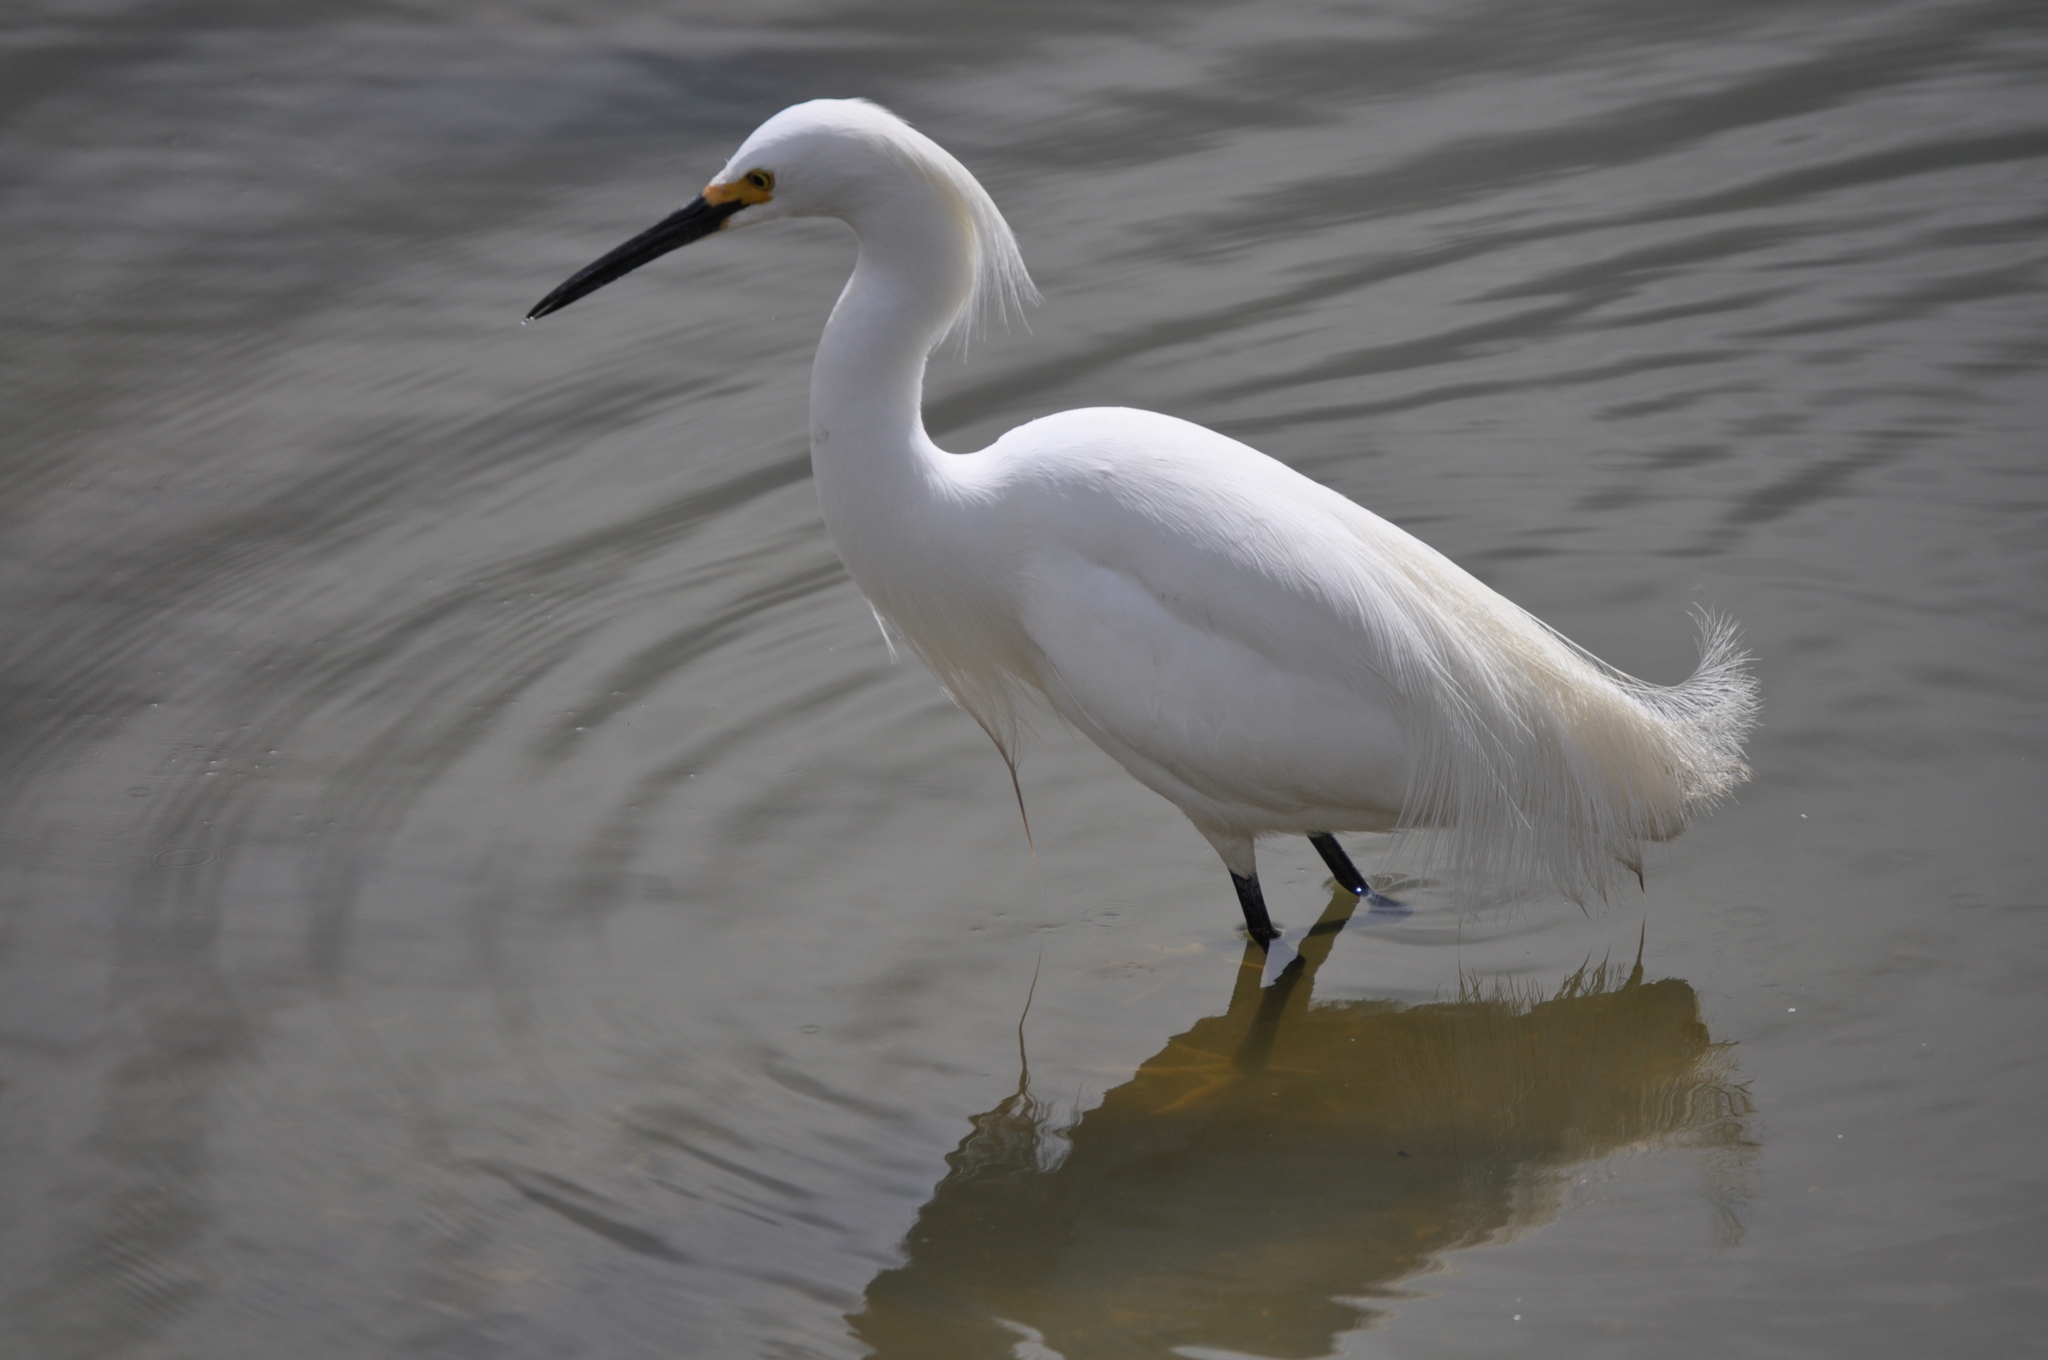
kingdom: Animalia
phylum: Chordata
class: Aves
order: Pelecaniformes
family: Ardeidae
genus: Egretta
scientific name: Egretta thula
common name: Snowy egret
